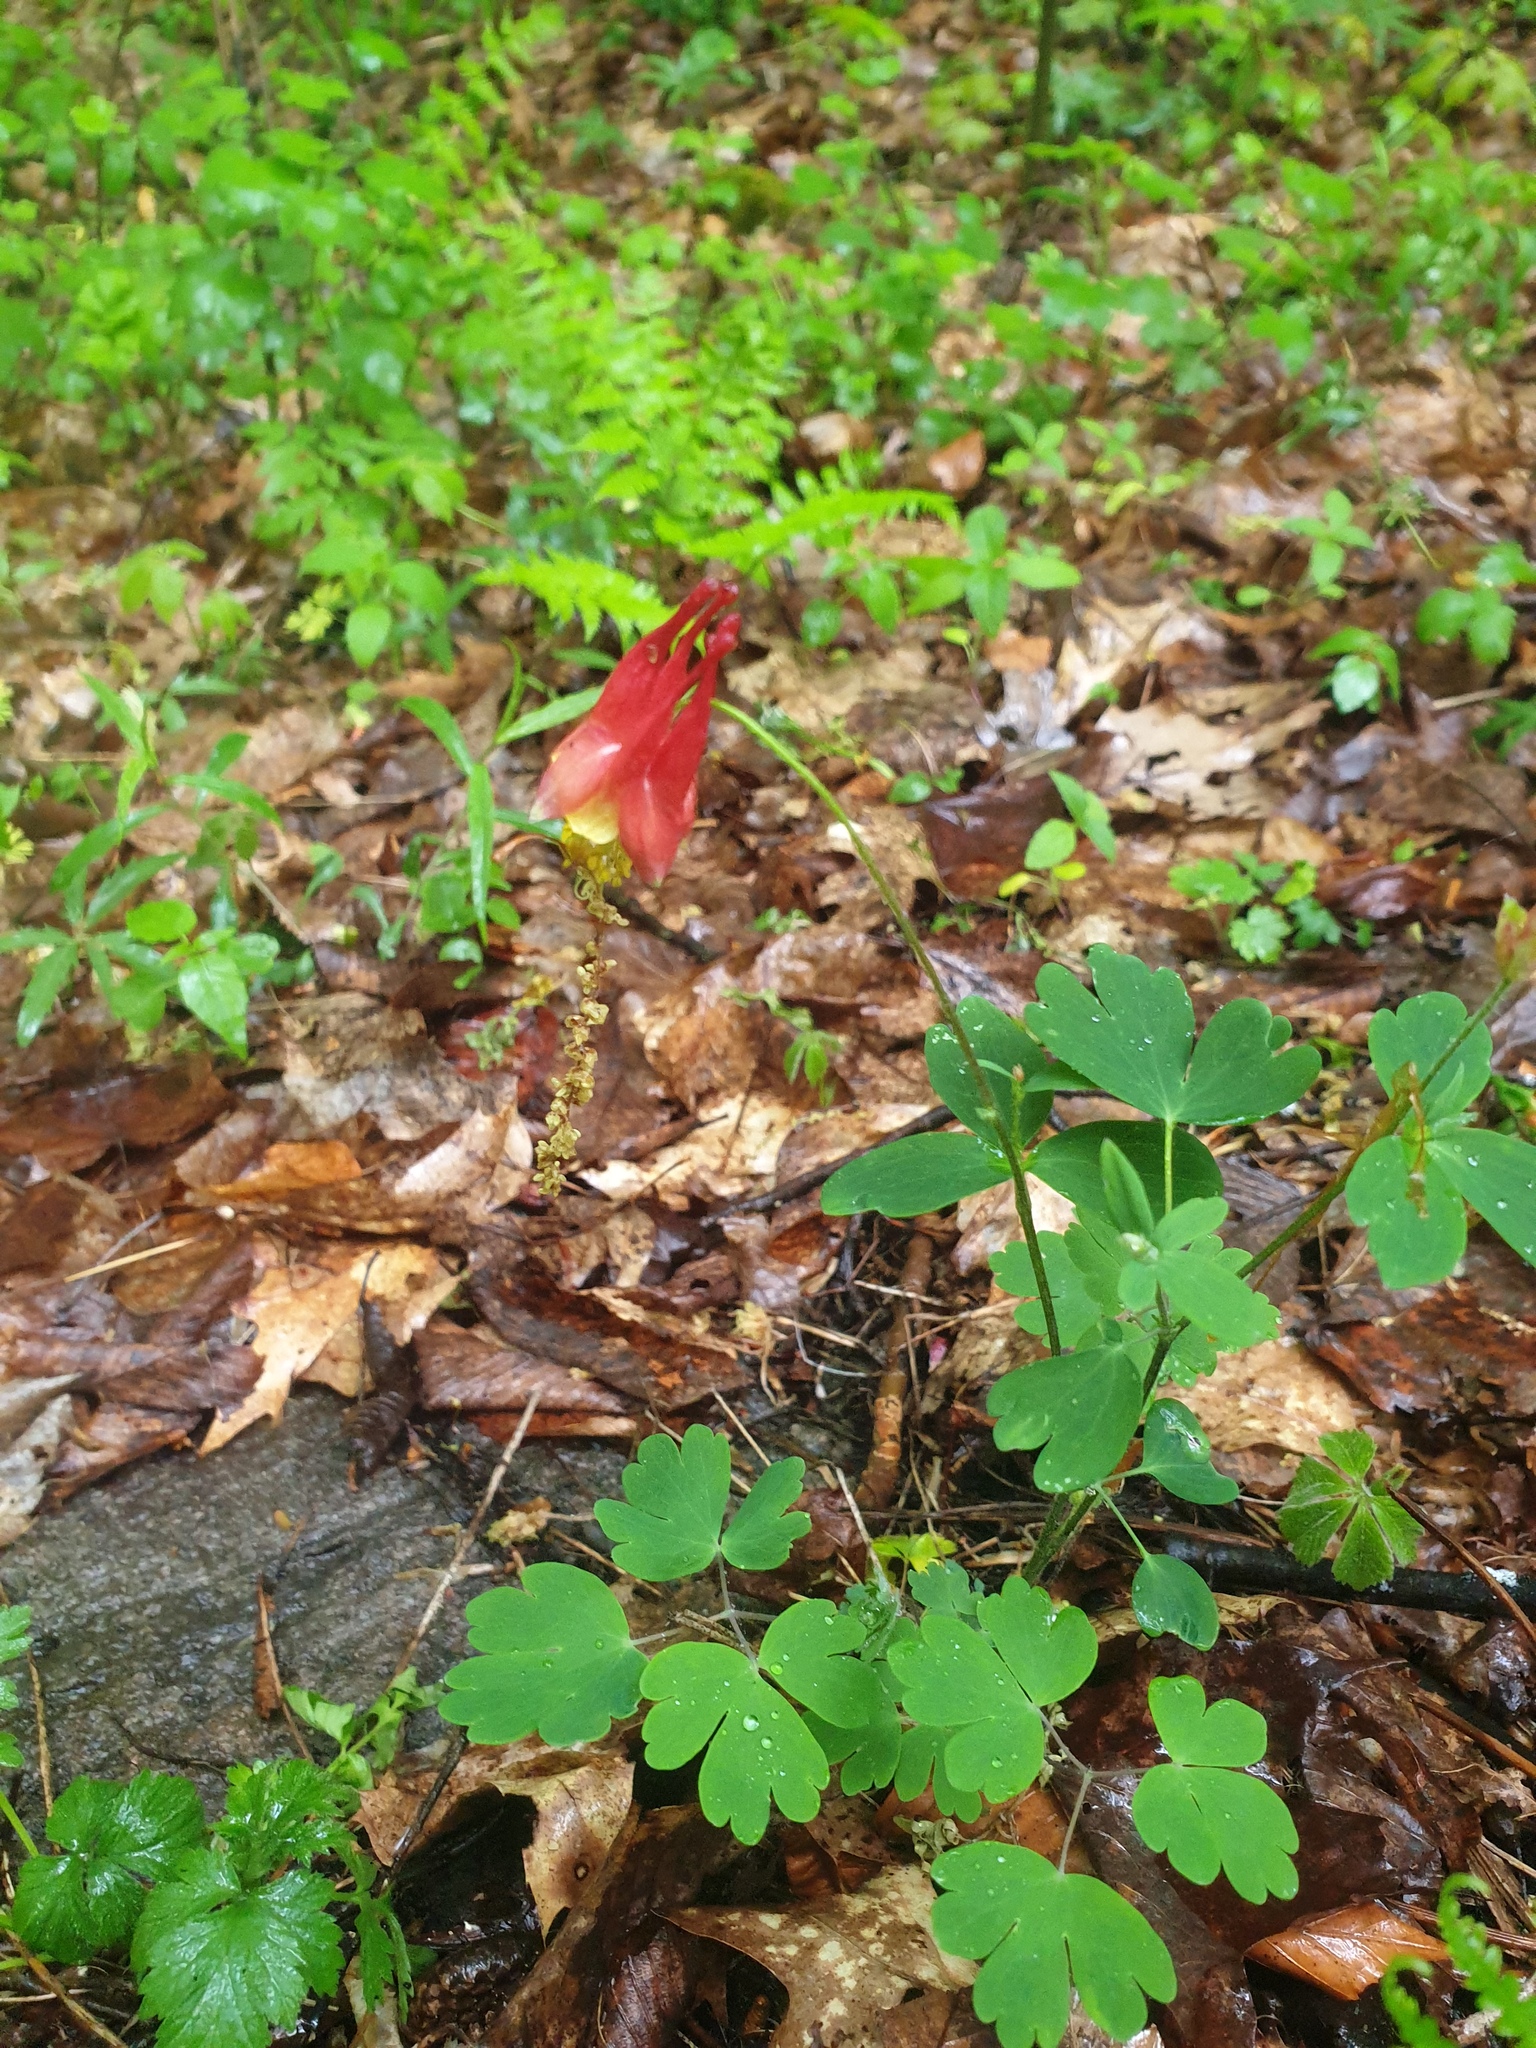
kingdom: Plantae
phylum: Tracheophyta
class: Magnoliopsida
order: Ranunculales
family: Ranunculaceae
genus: Aquilegia
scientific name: Aquilegia canadensis
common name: American columbine
